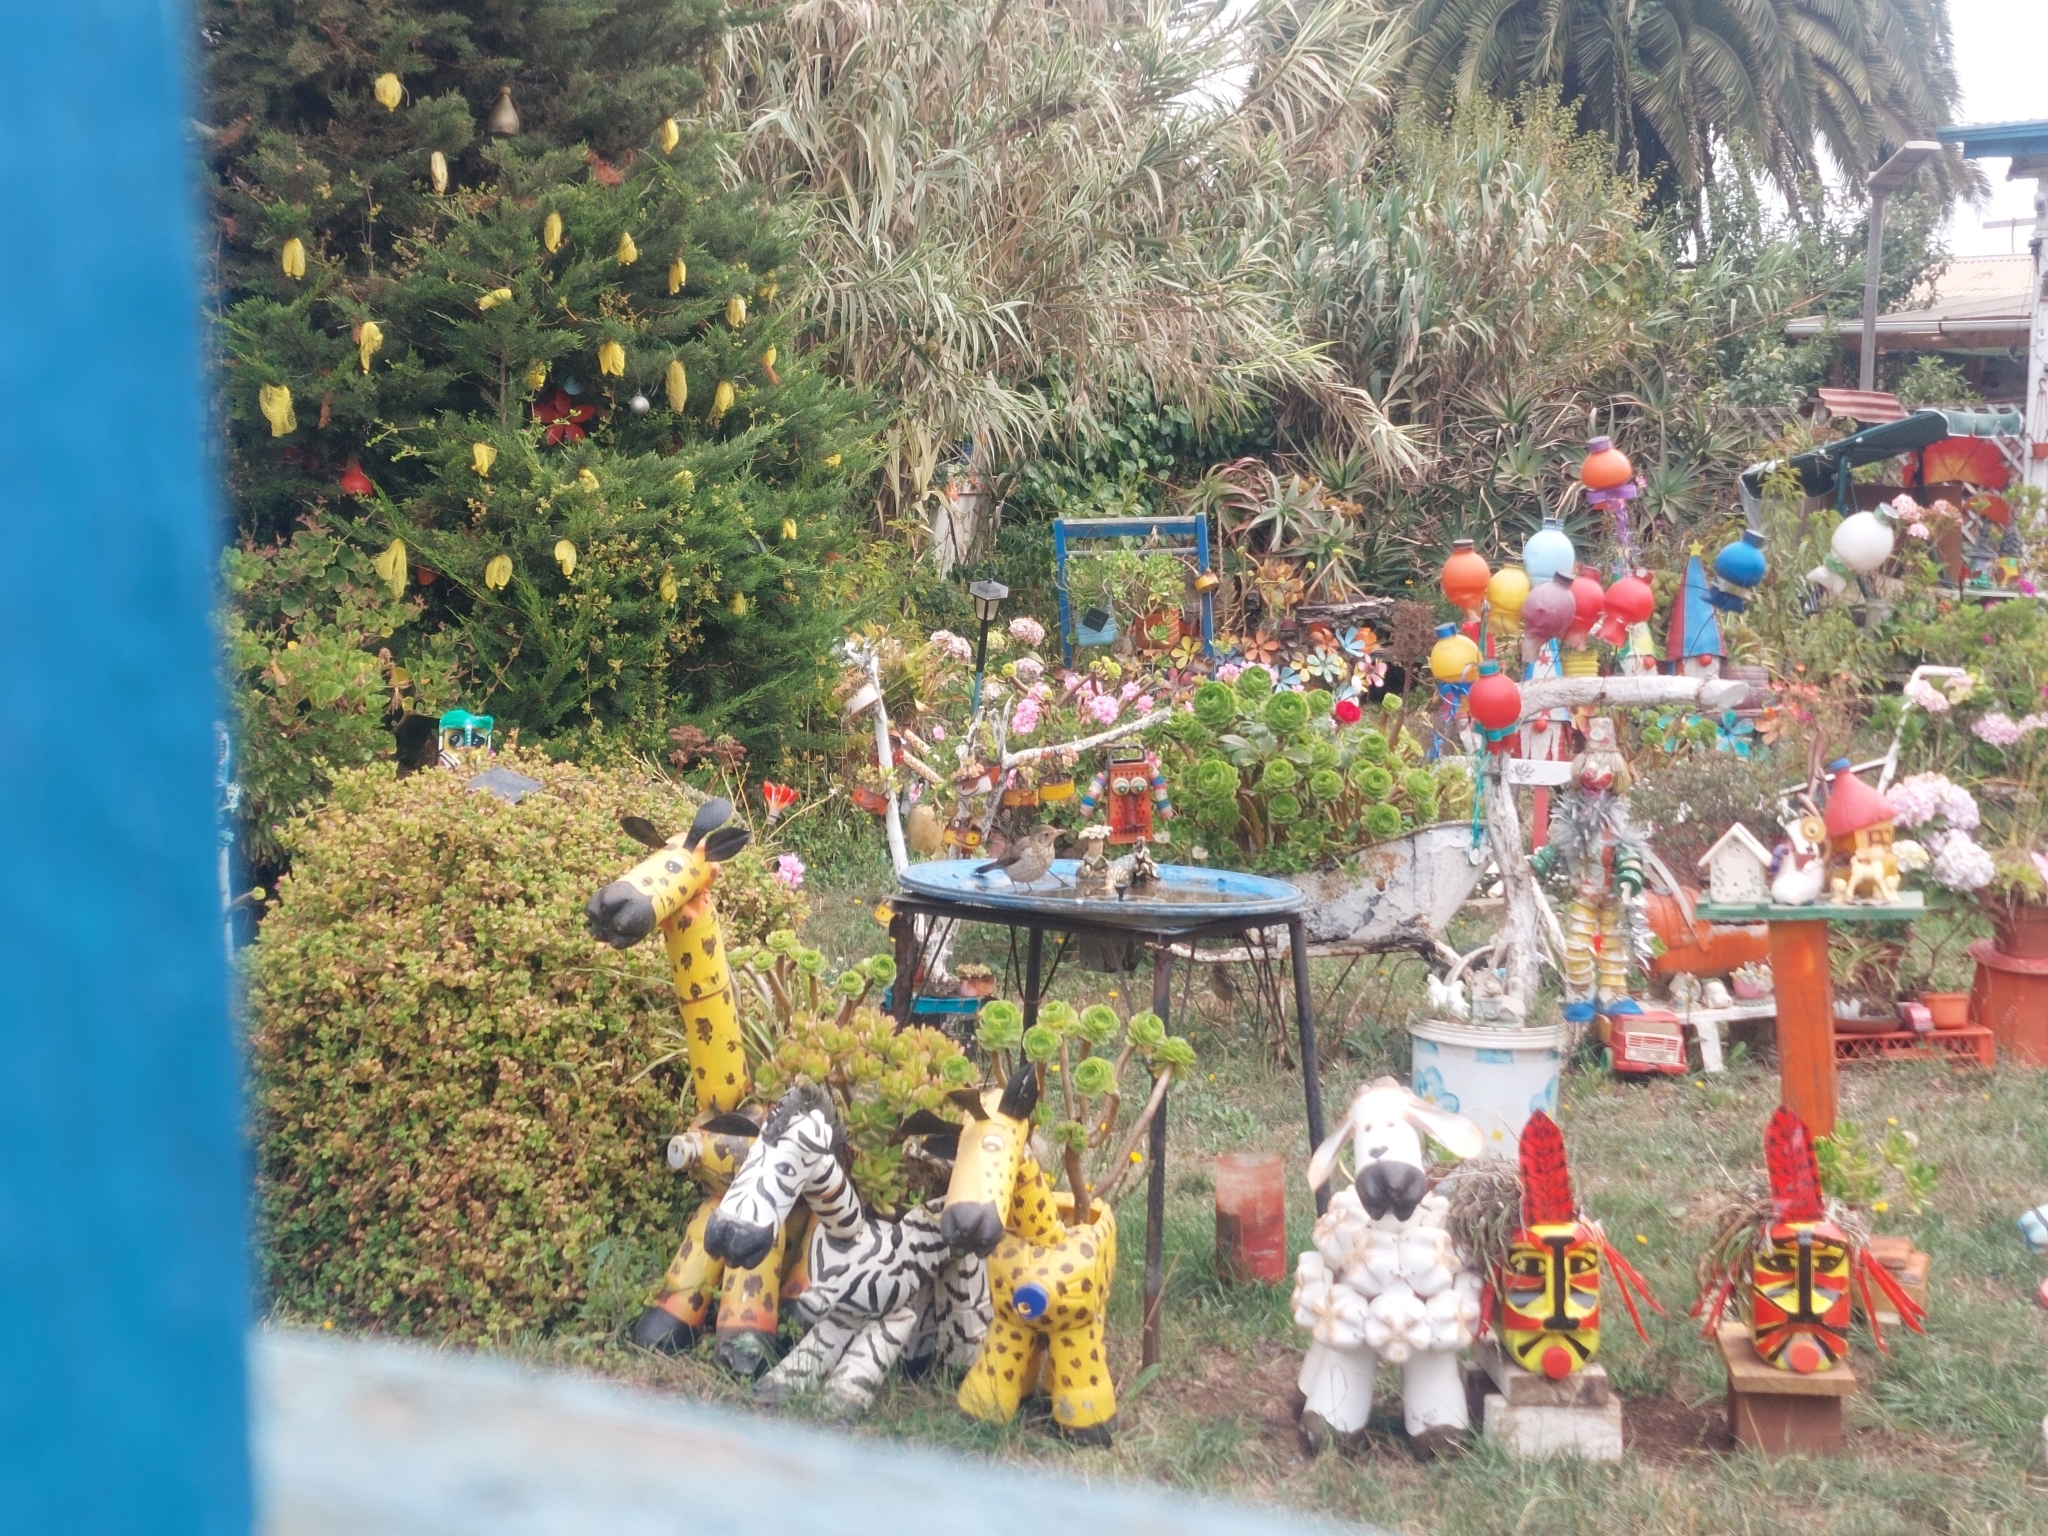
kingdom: Animalia
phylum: Chordata
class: Aves
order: Passeriformes
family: Turdidae
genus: Turdus
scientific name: Turdus falcklandii
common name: Austral thrush
